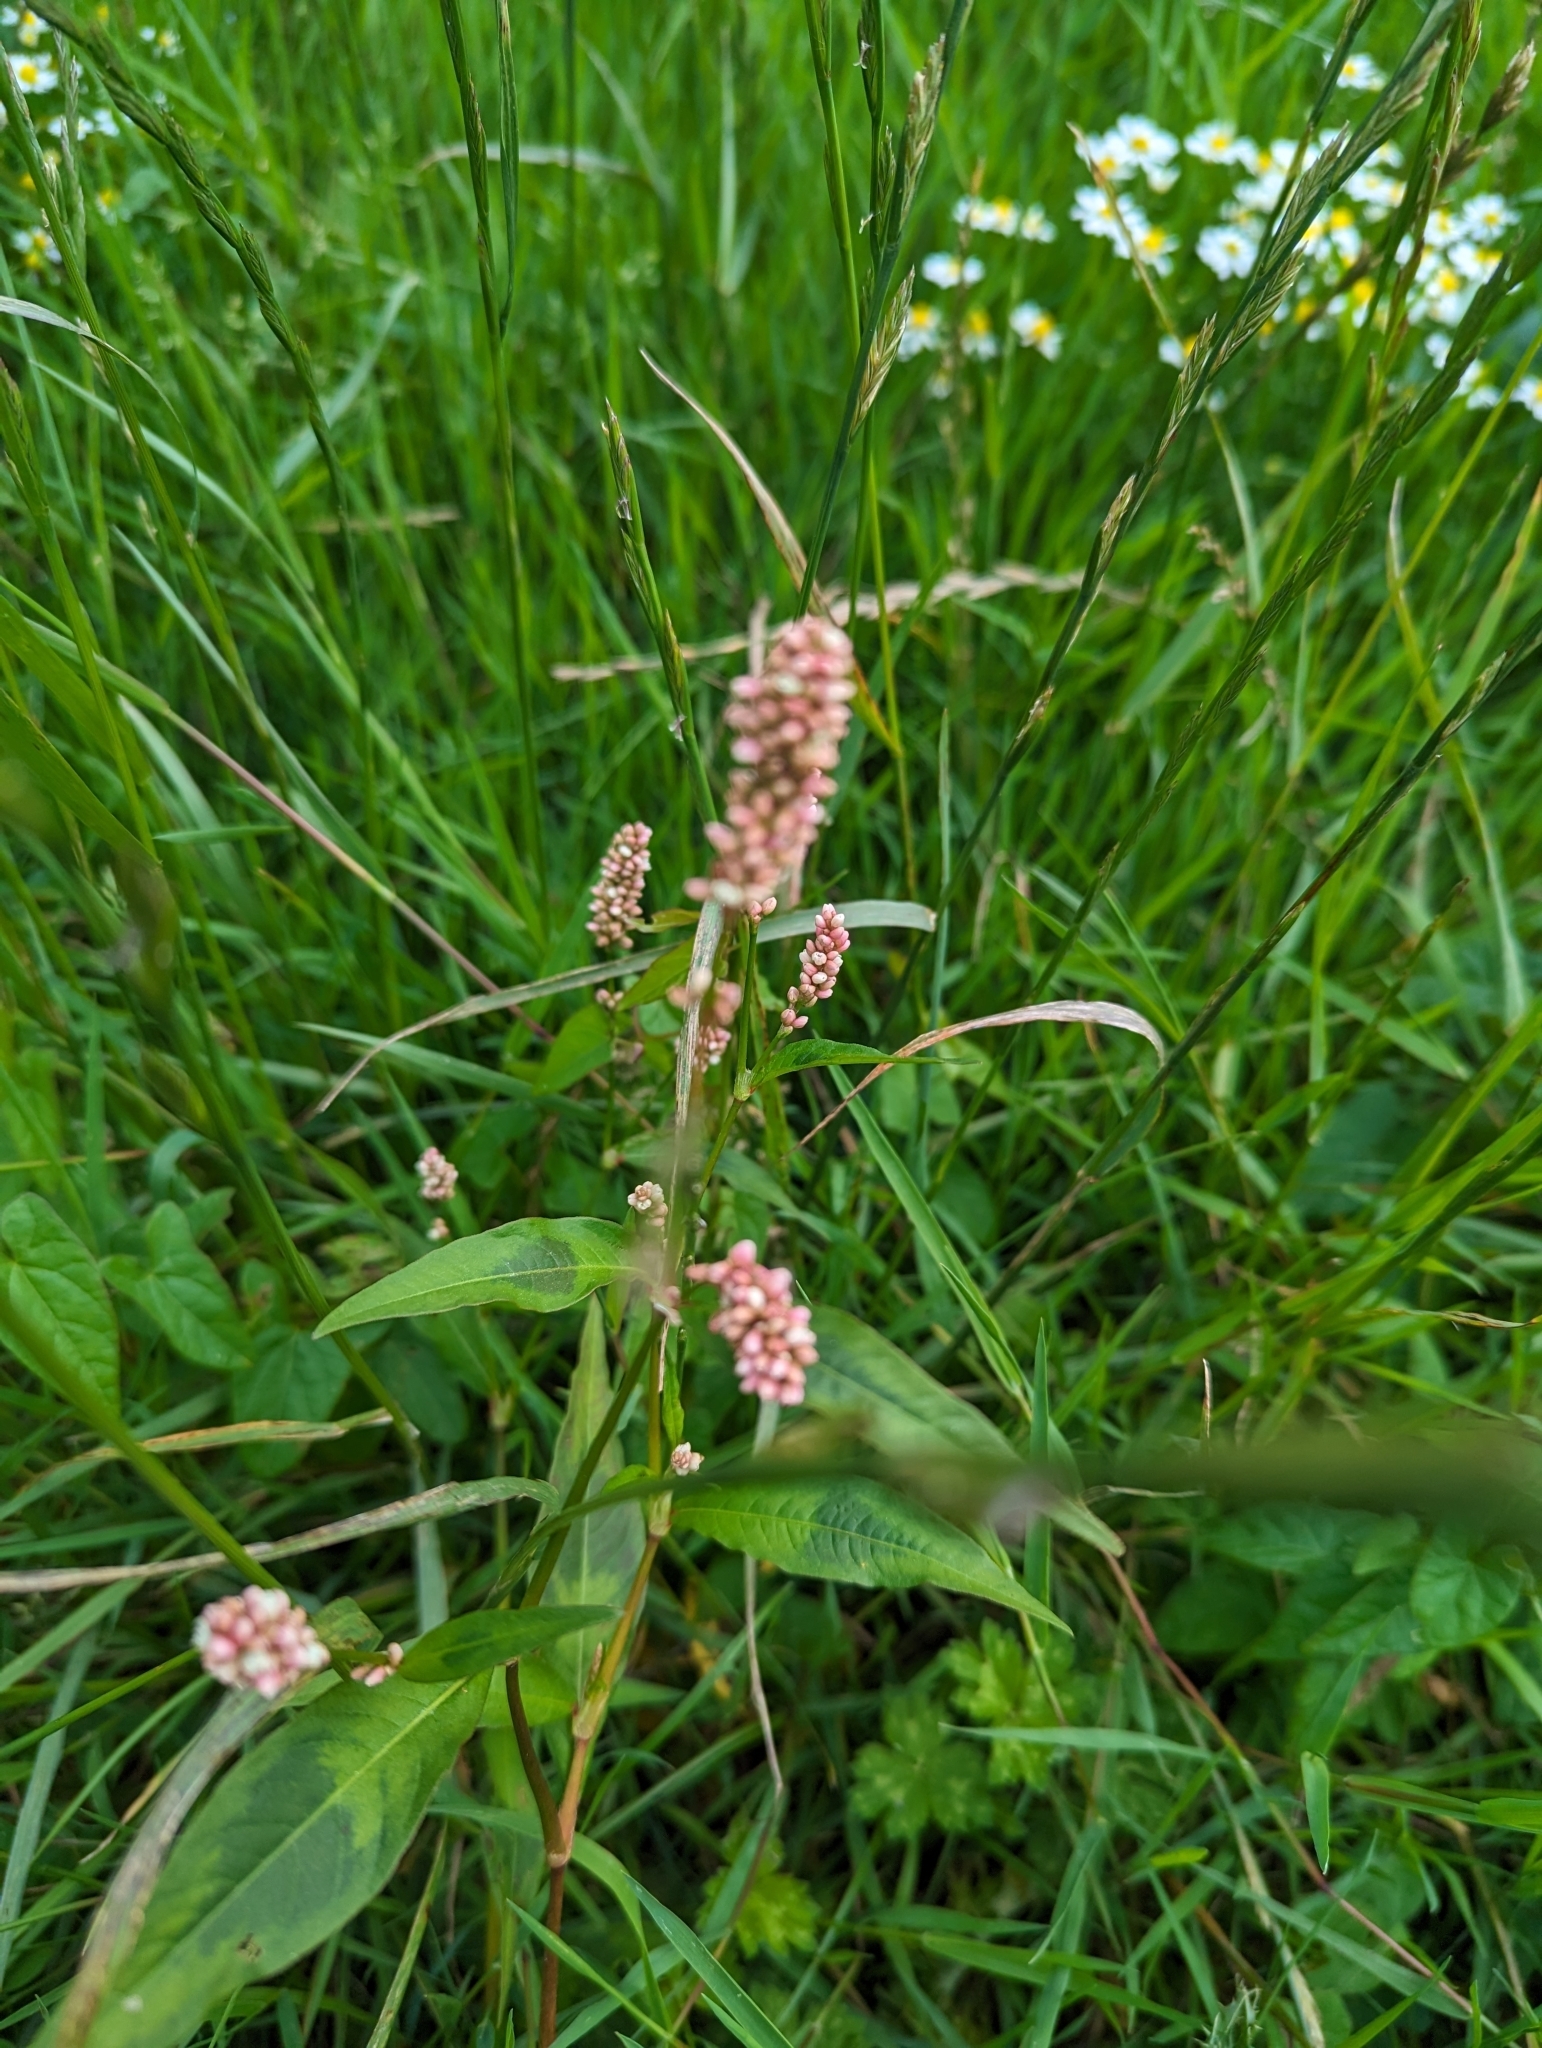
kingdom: Plantae
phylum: Tracheophyta
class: Magnoliopsida
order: Caryophyllales
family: Polygonaceae
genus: Persicaria
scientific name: Persicaria maculosa
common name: Redshank
